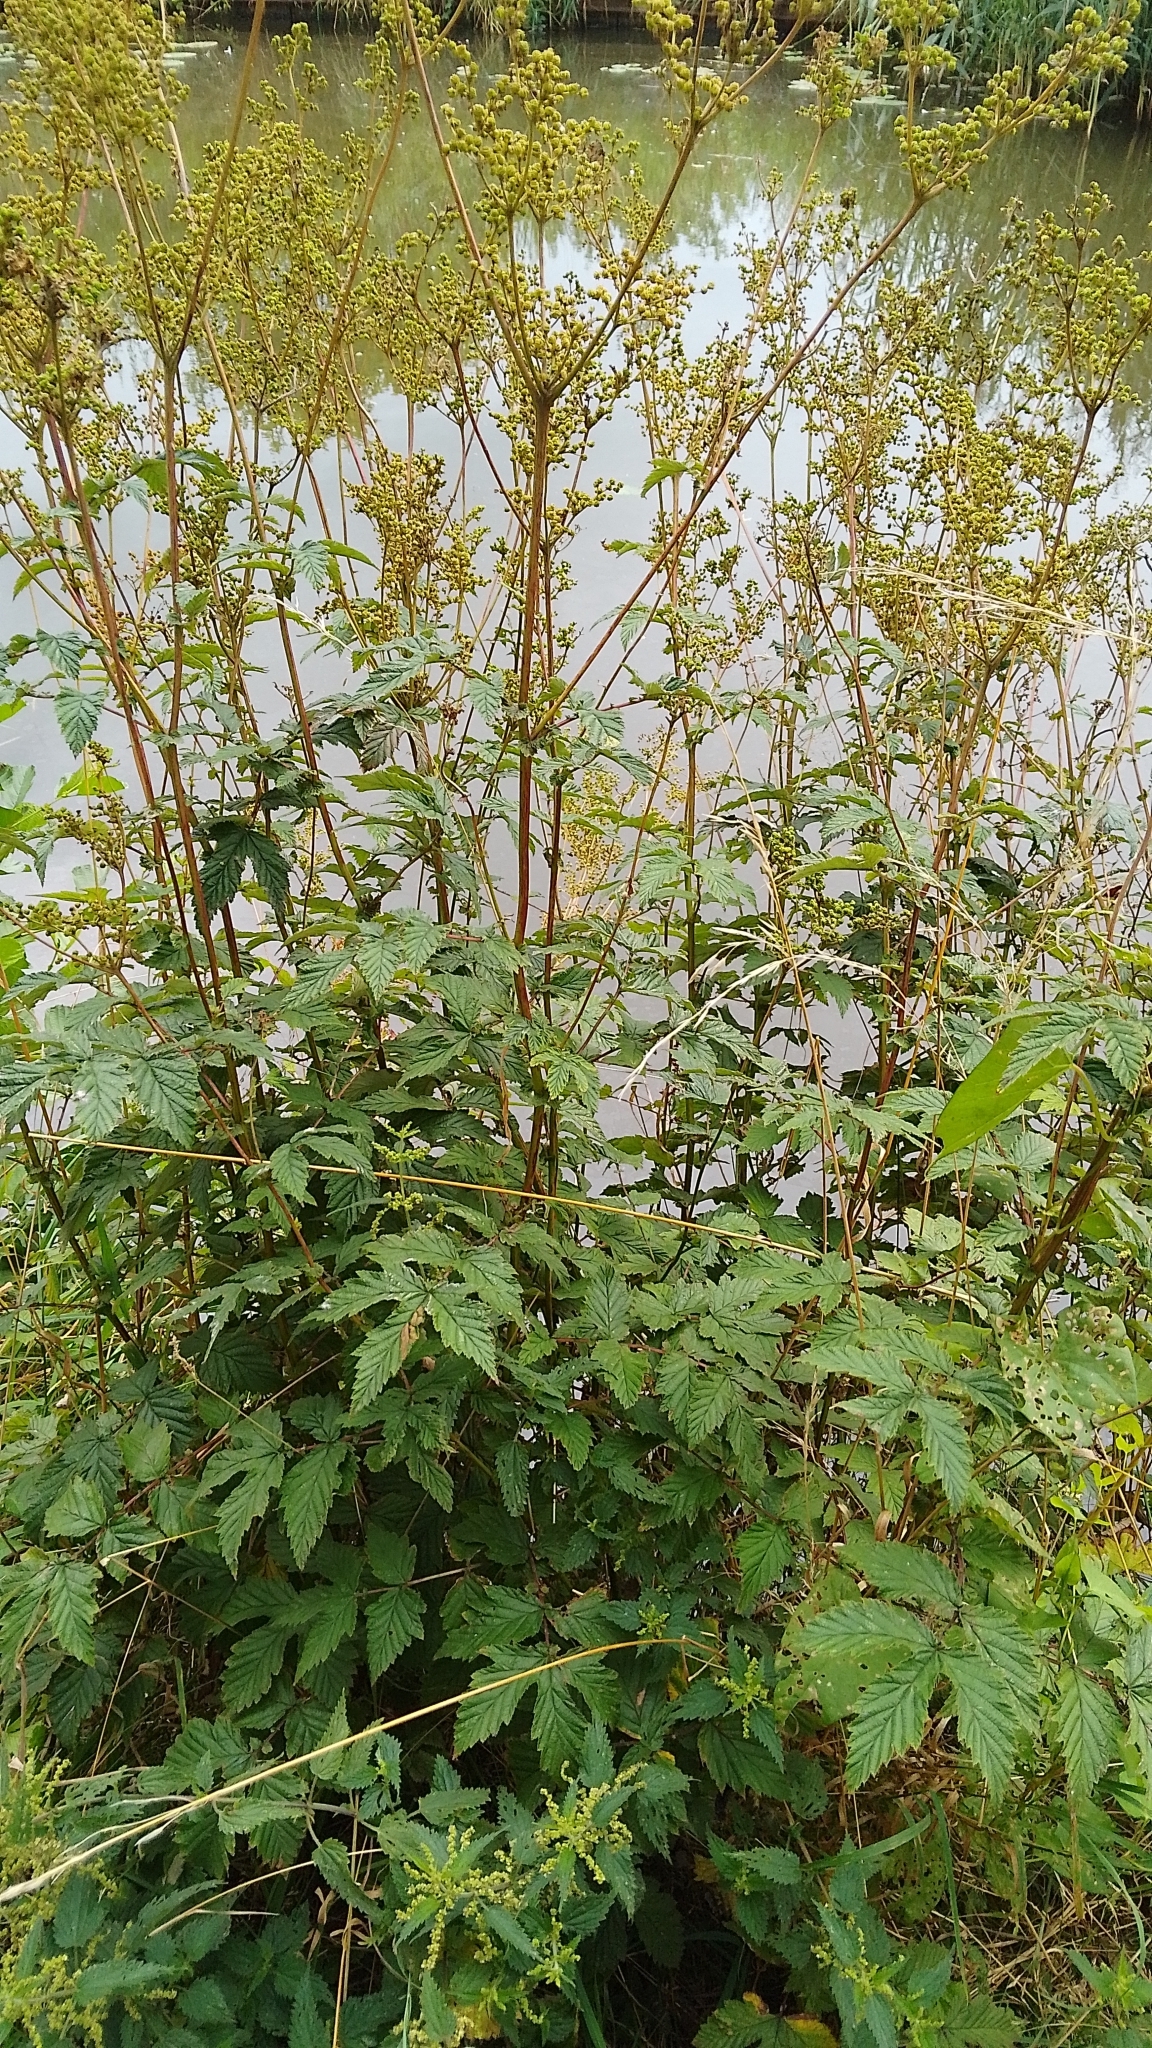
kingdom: Plantae
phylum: Tracheophyta
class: Magnoliopsida
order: Rosales
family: Rosaceae
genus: Filipendula
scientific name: Filipendula ulmaria
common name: Meadowsweet
